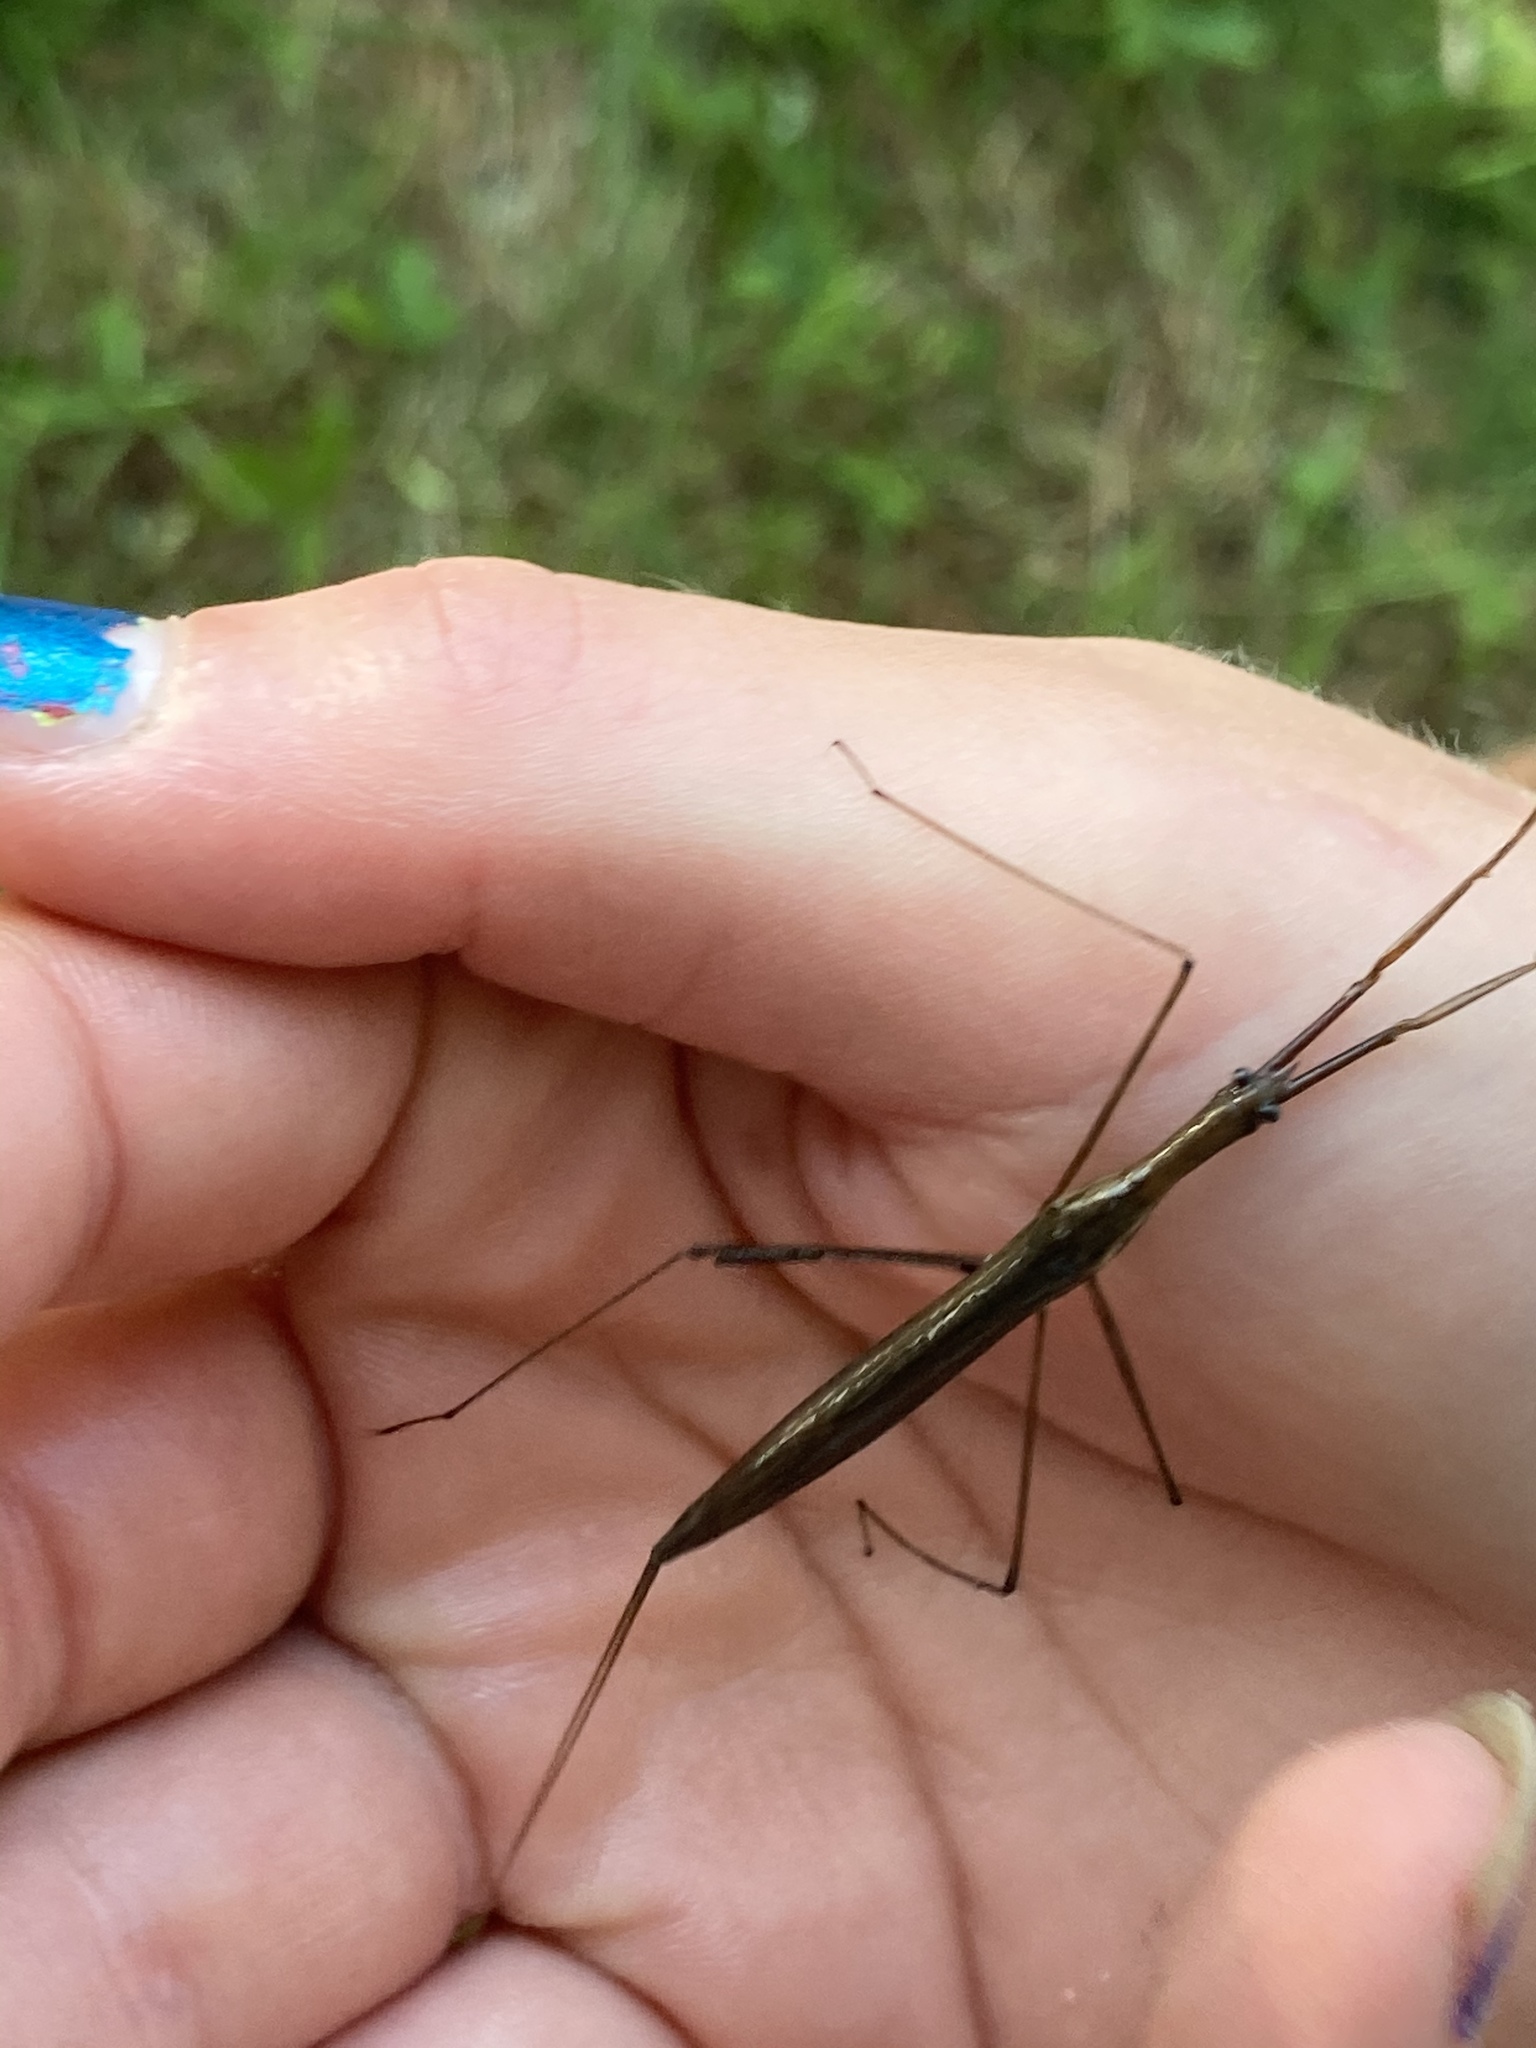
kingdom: Animalia
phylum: Arthropoda
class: Insecta
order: Hemiptera
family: Nepidae
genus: Ranatra
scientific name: Ranatra fusca
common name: Brown waterscorpion
